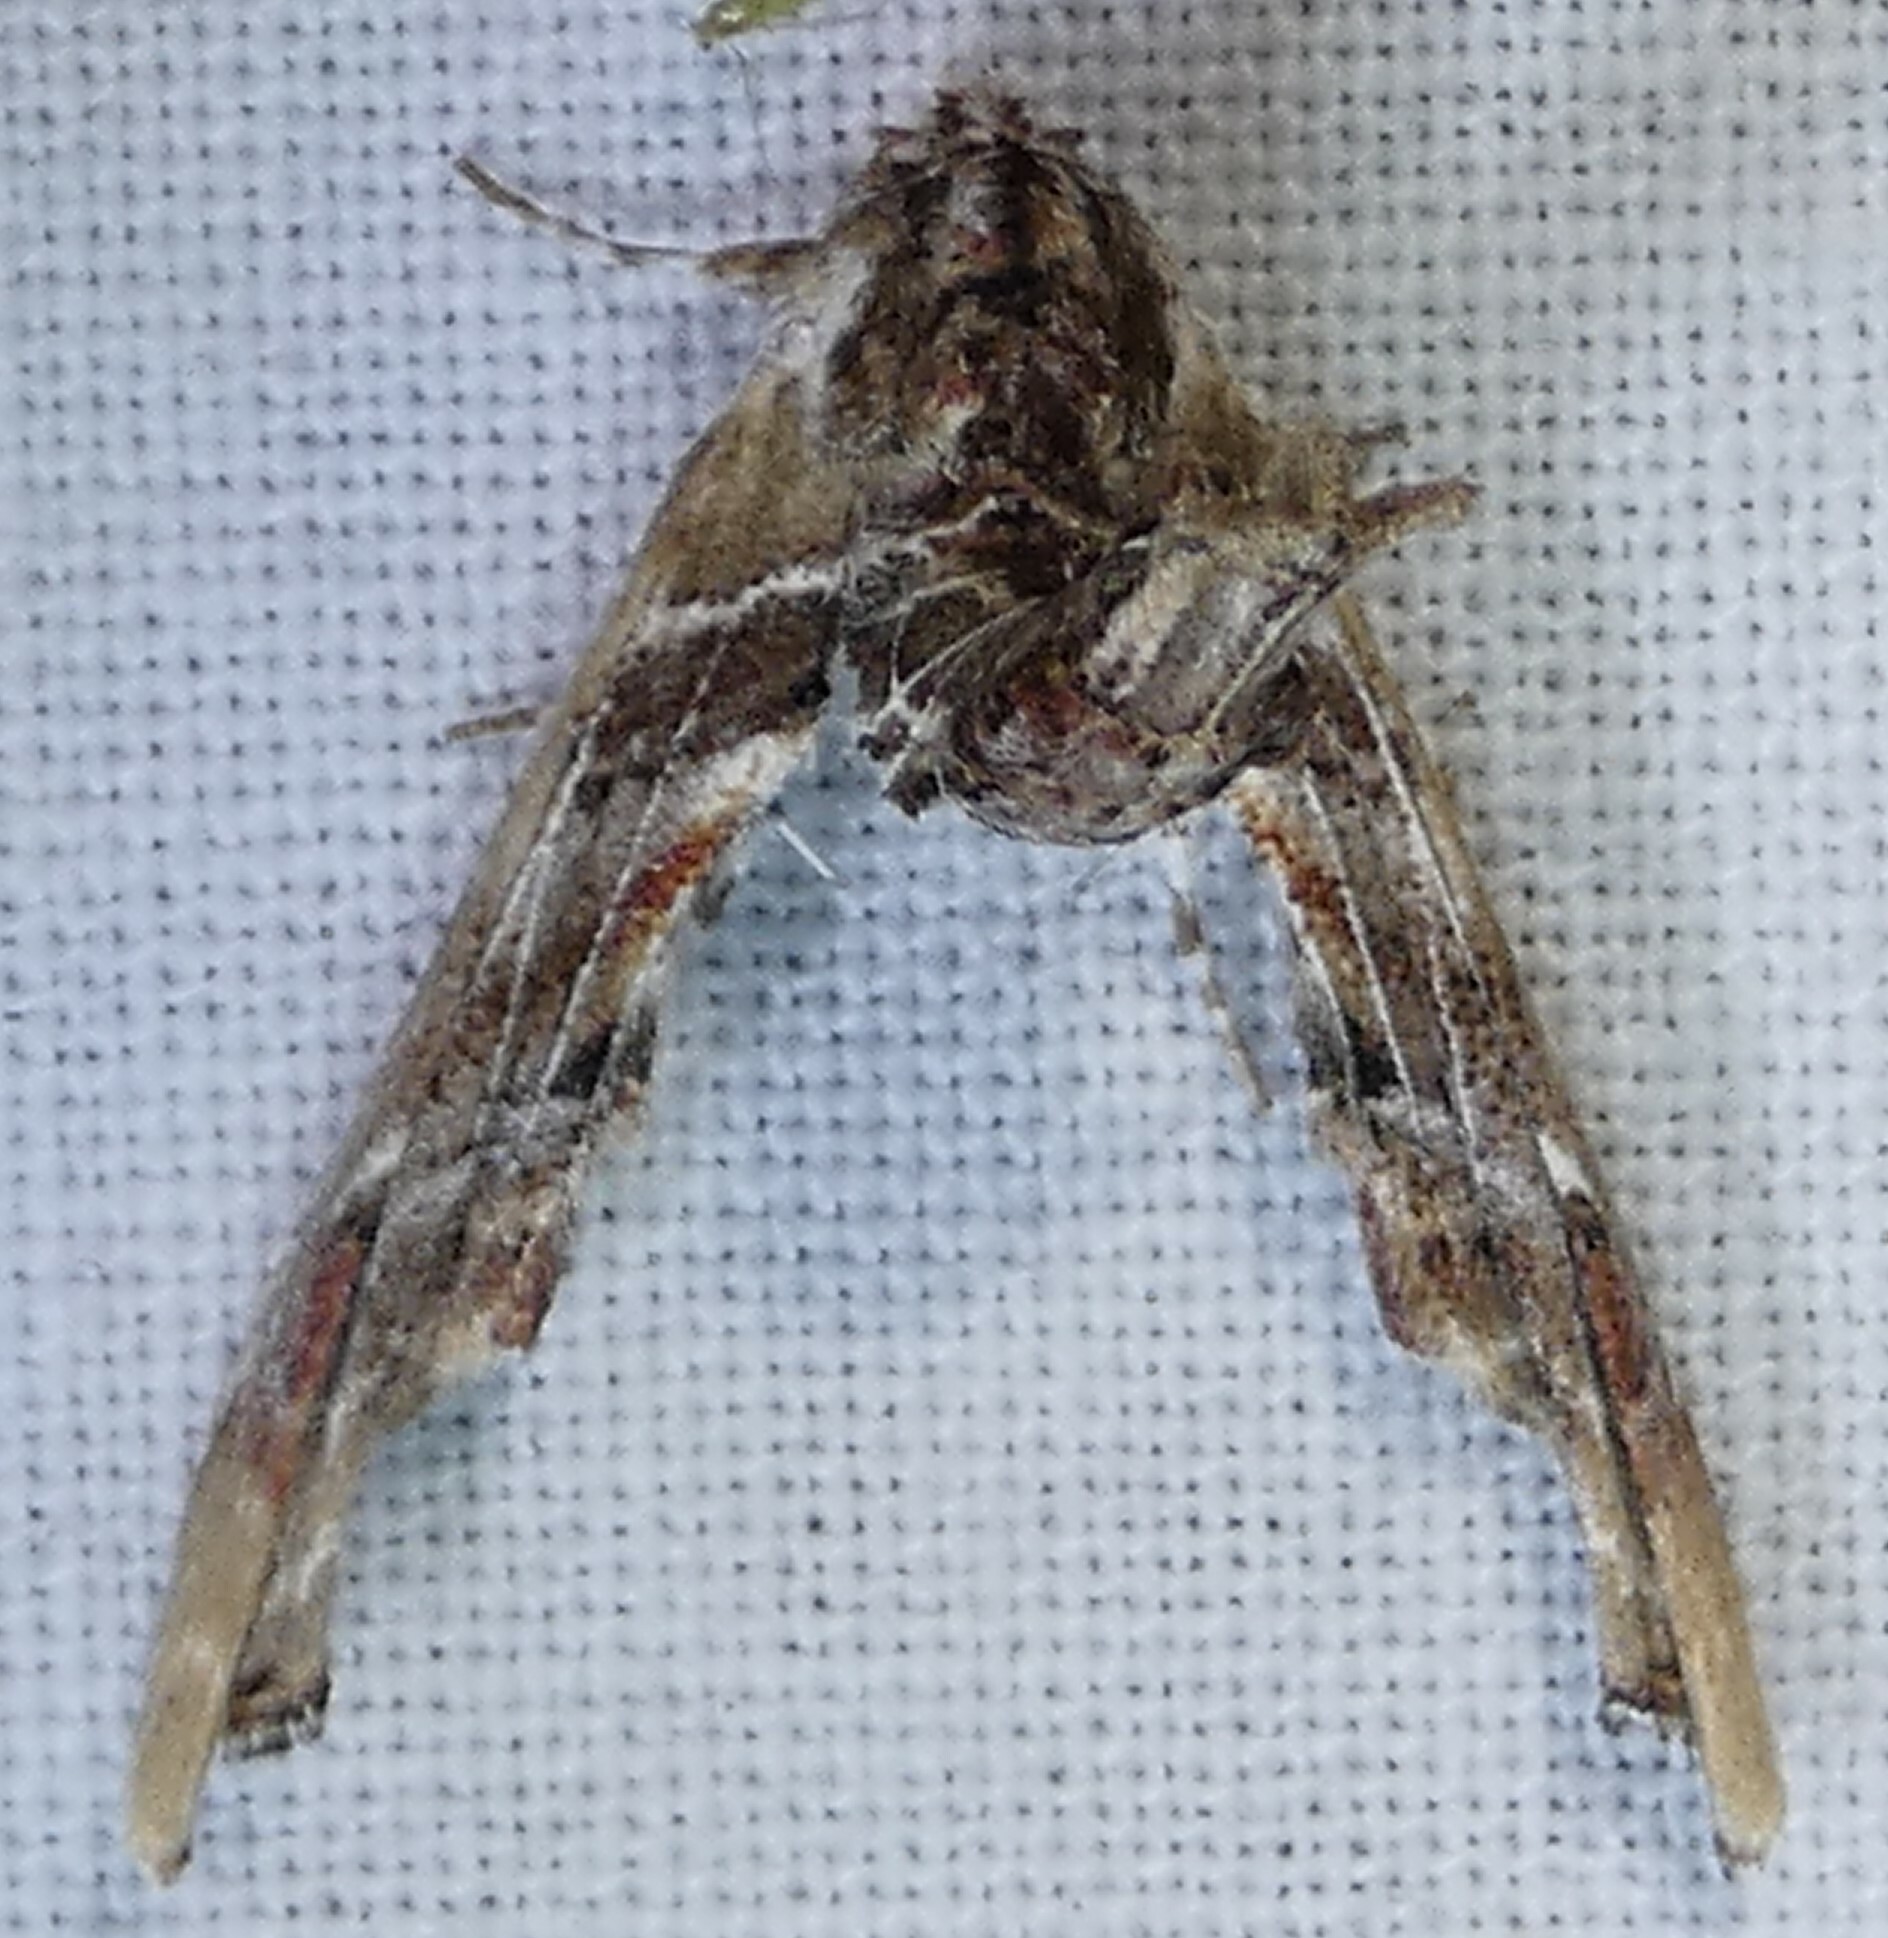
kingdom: Animalia
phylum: Arthropoda
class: Insecta
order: Lepidoptera
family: Euteliidae
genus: Marathyssa
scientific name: Marathyssa basalis
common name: Light marathyssa moth
